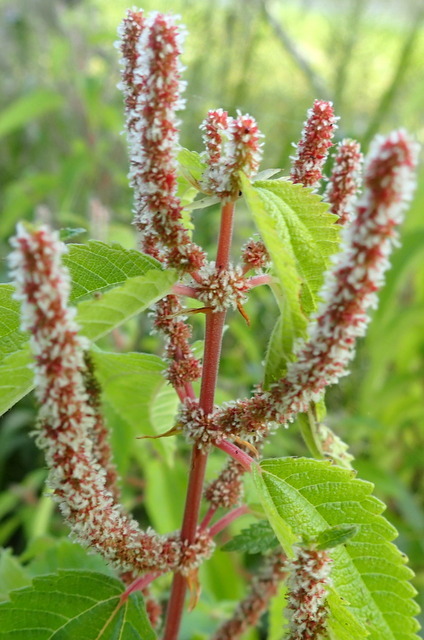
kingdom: Plantae
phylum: Tracheophyta
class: Magnoliopsida
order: Rosales
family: Urticaceae
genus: Boehmeria
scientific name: Boehmeria cylindrica
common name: Bog-hemp
